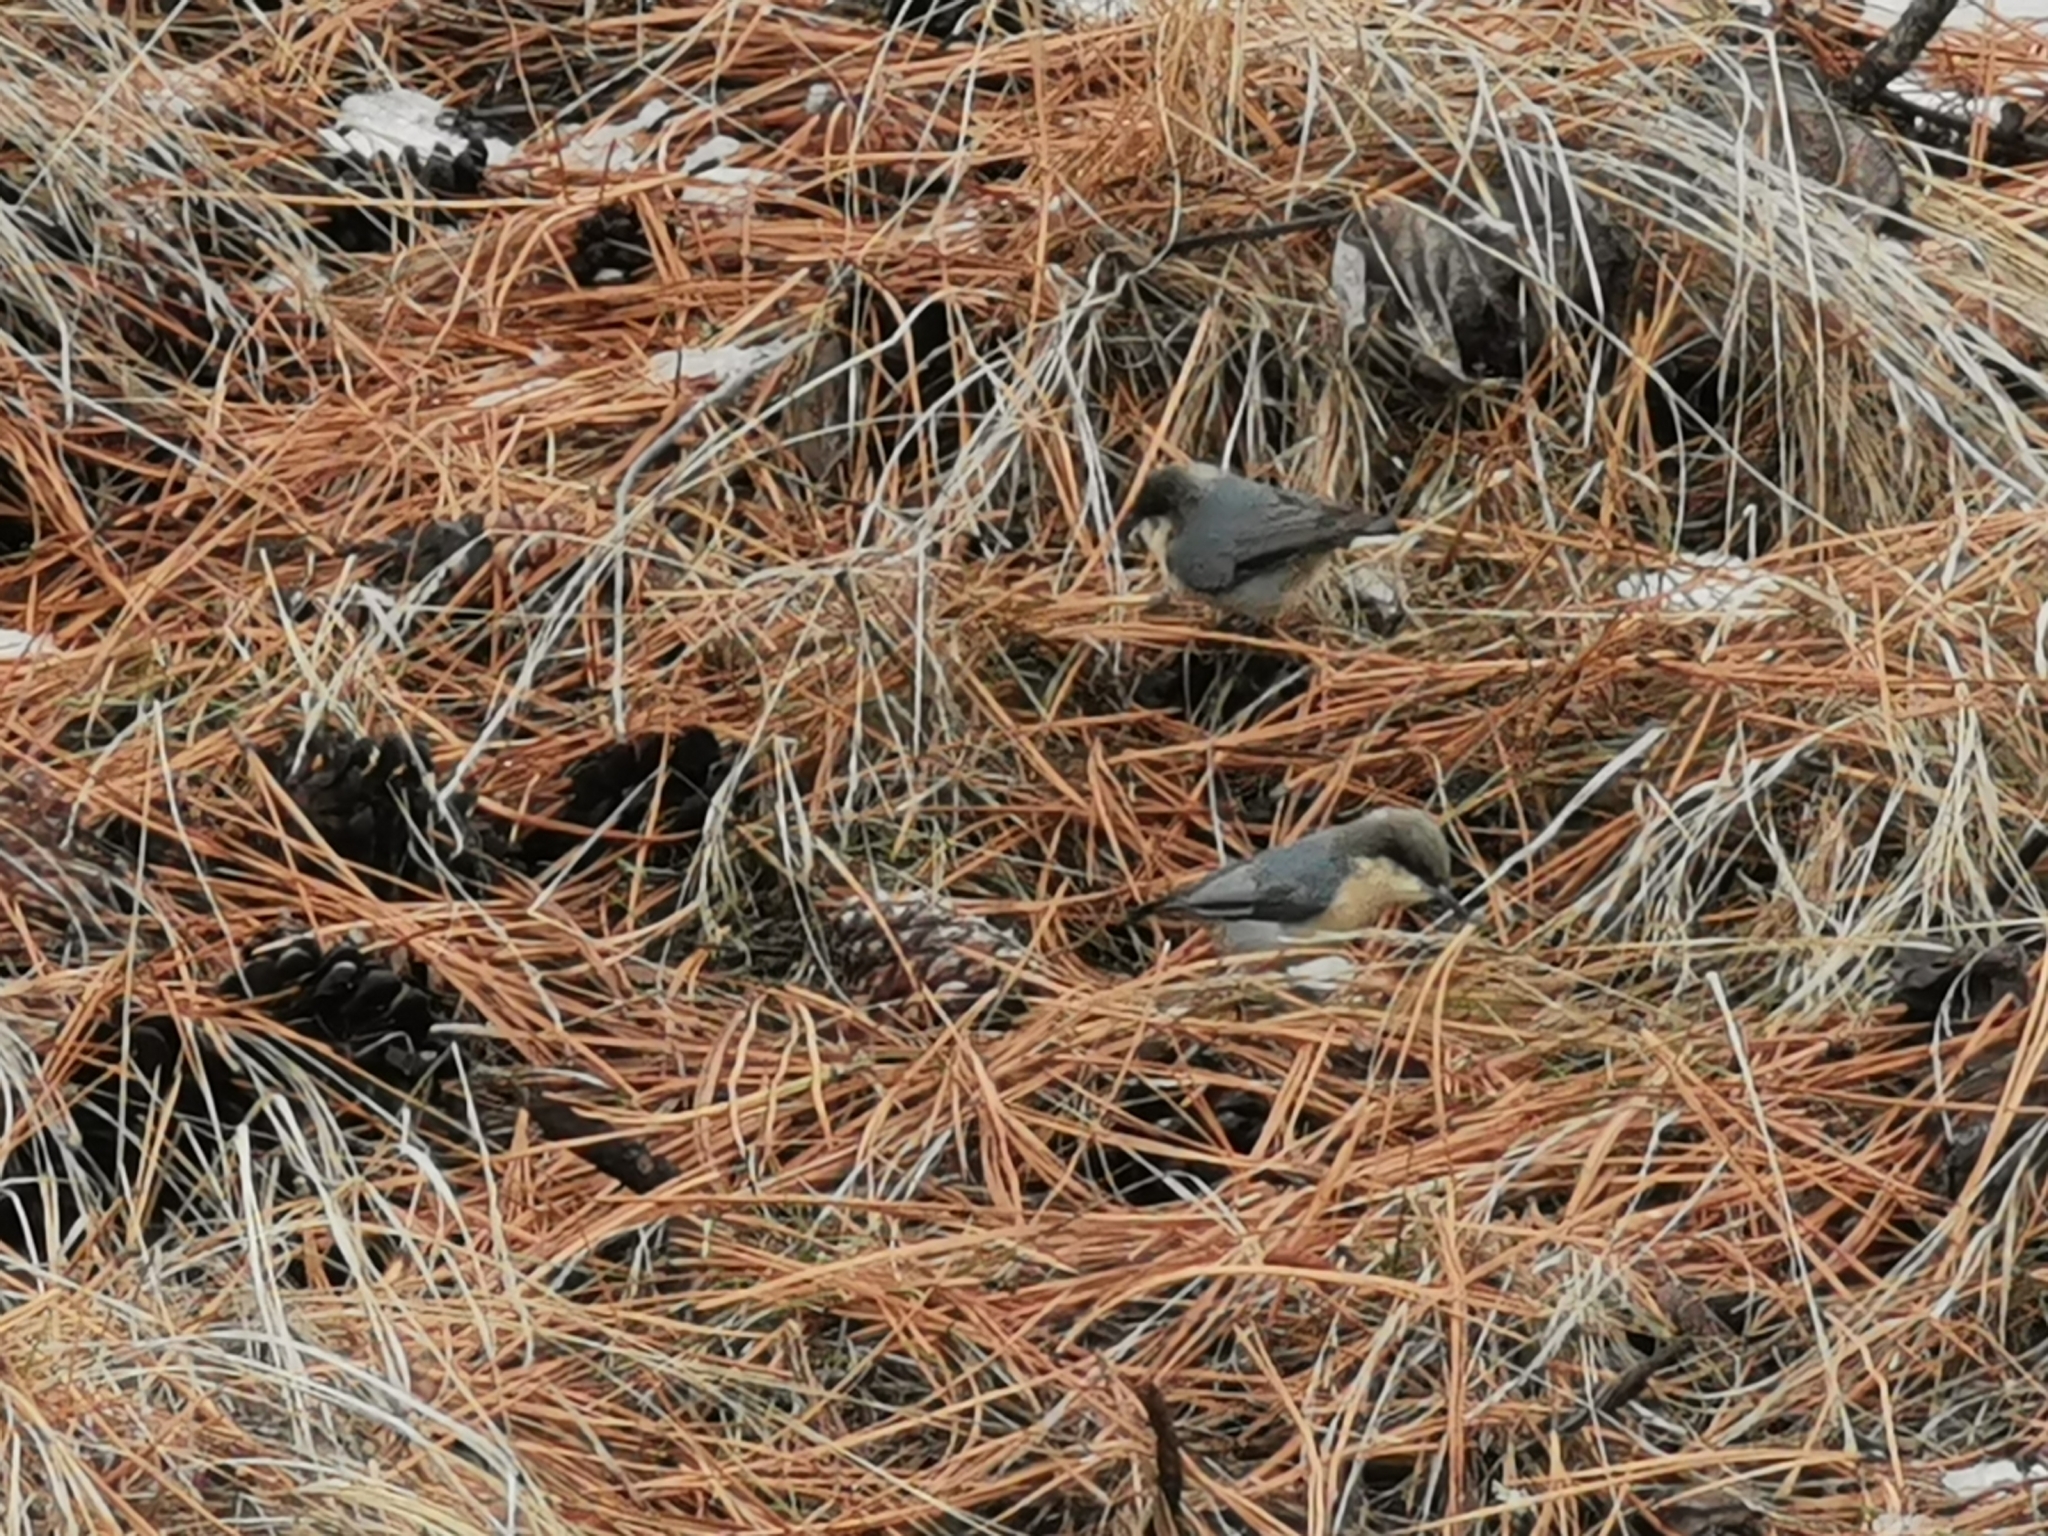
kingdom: Animalia
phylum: Chordata
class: Aves
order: Passeriformes
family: Sittidae
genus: Sitta
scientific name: Sitta pygmaea
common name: Pygmy nuthatch
